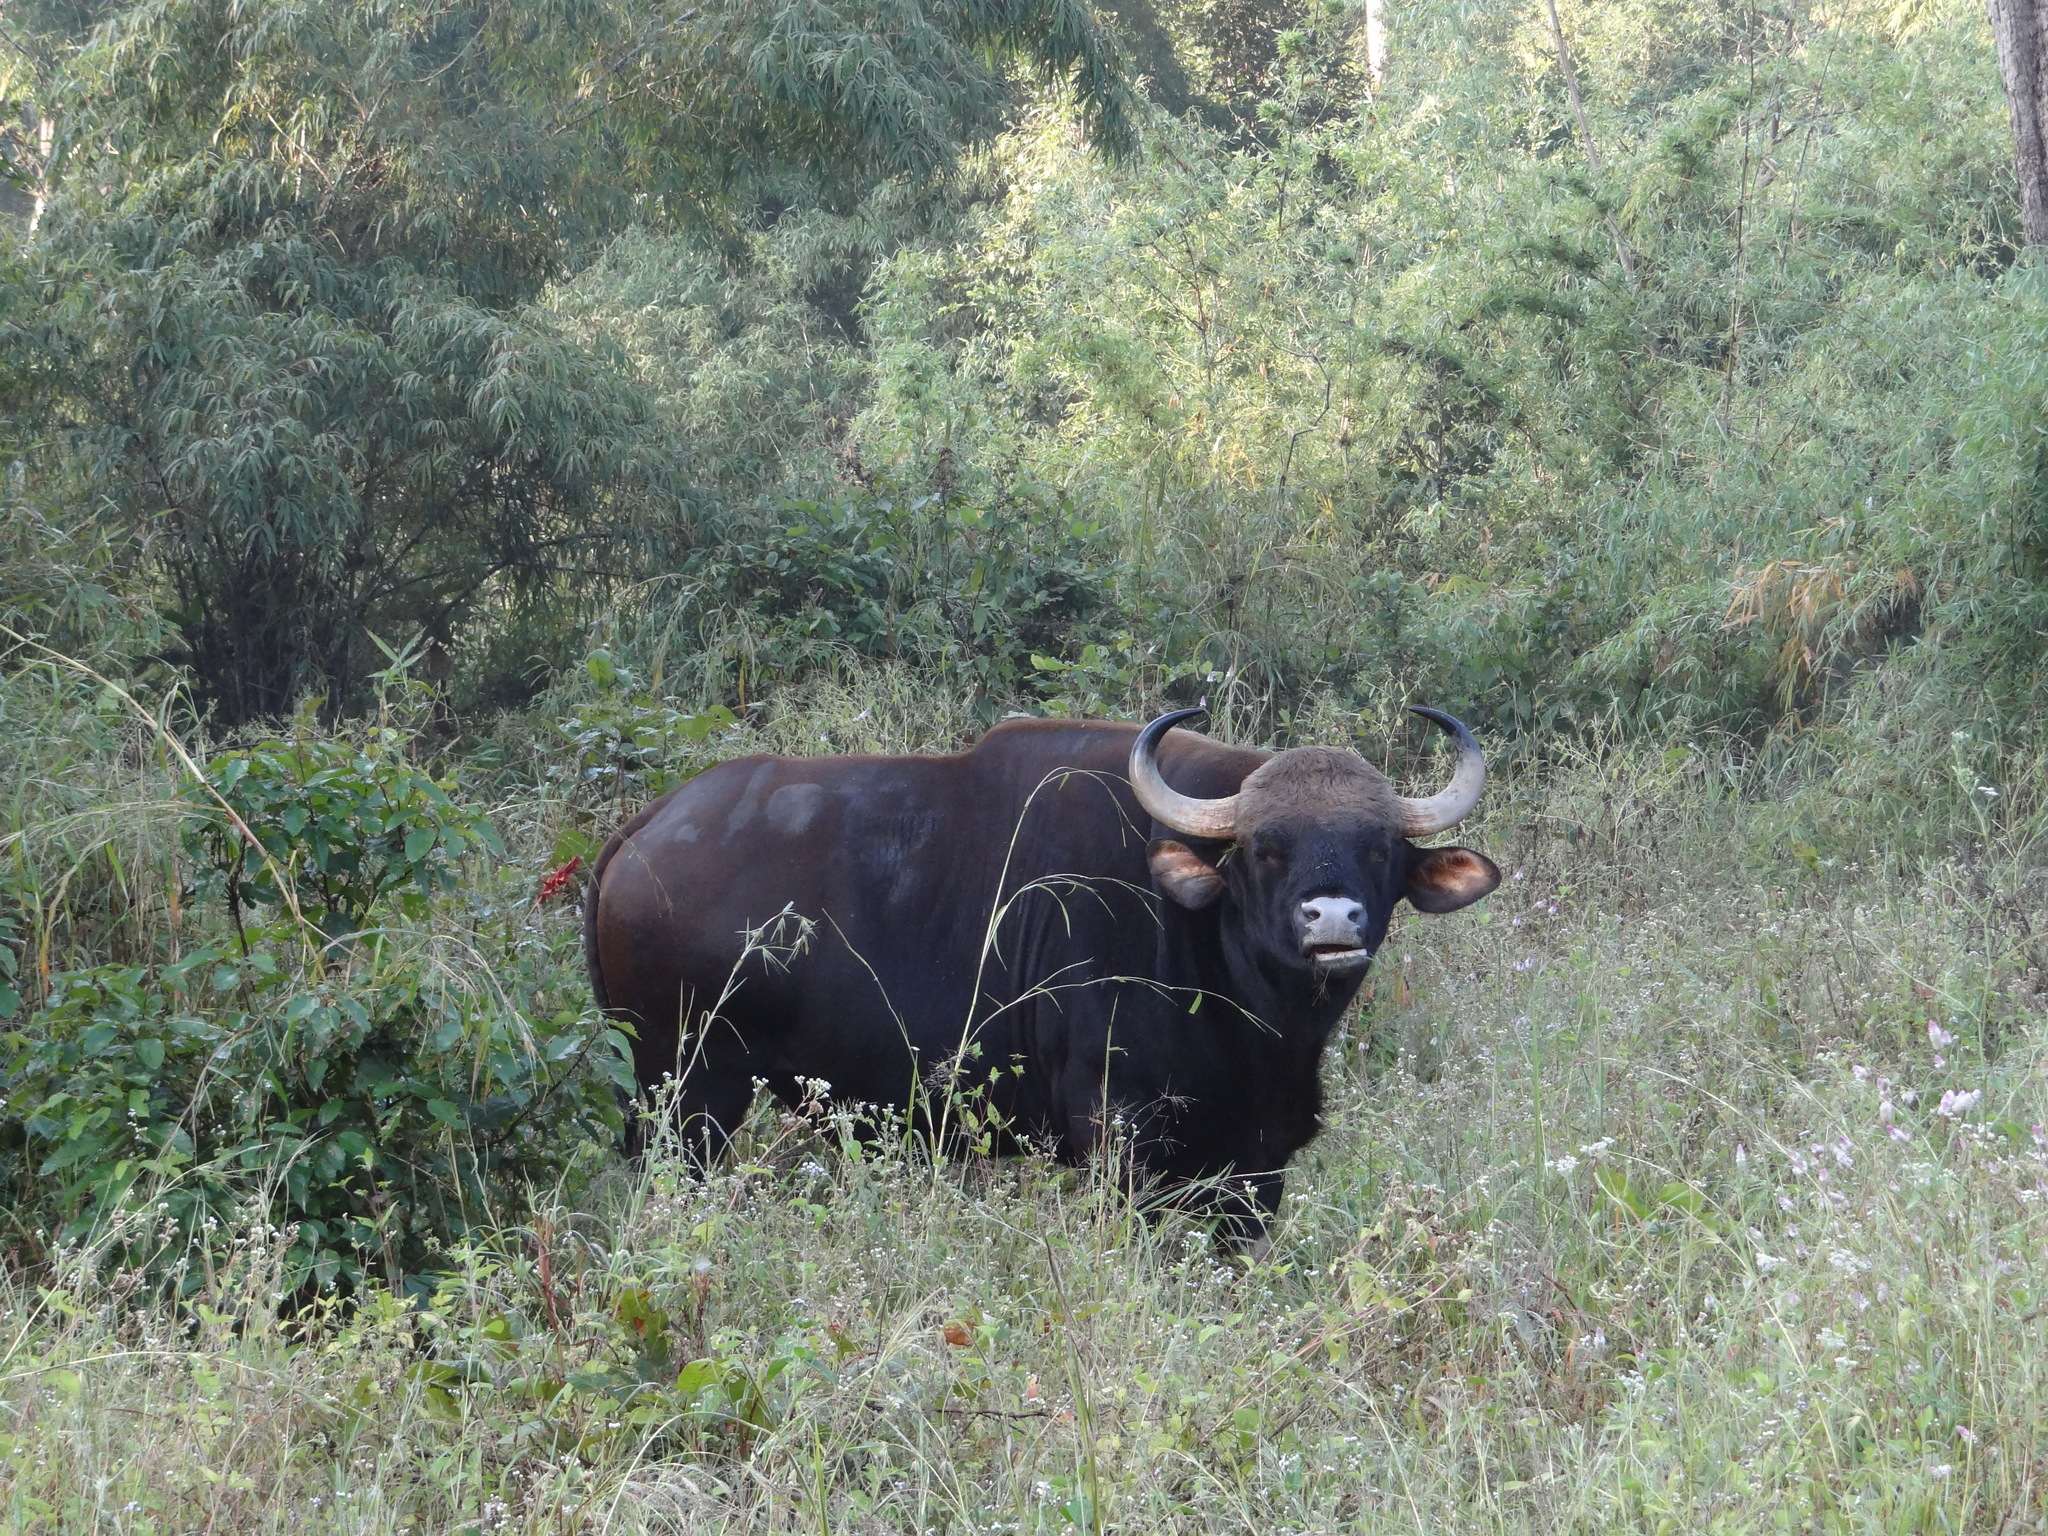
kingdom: Animalia
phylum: Chordata
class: Mammalia
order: Artiodactyla
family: Bovidae
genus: Bos
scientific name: Bos frontalis
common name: Gaur
